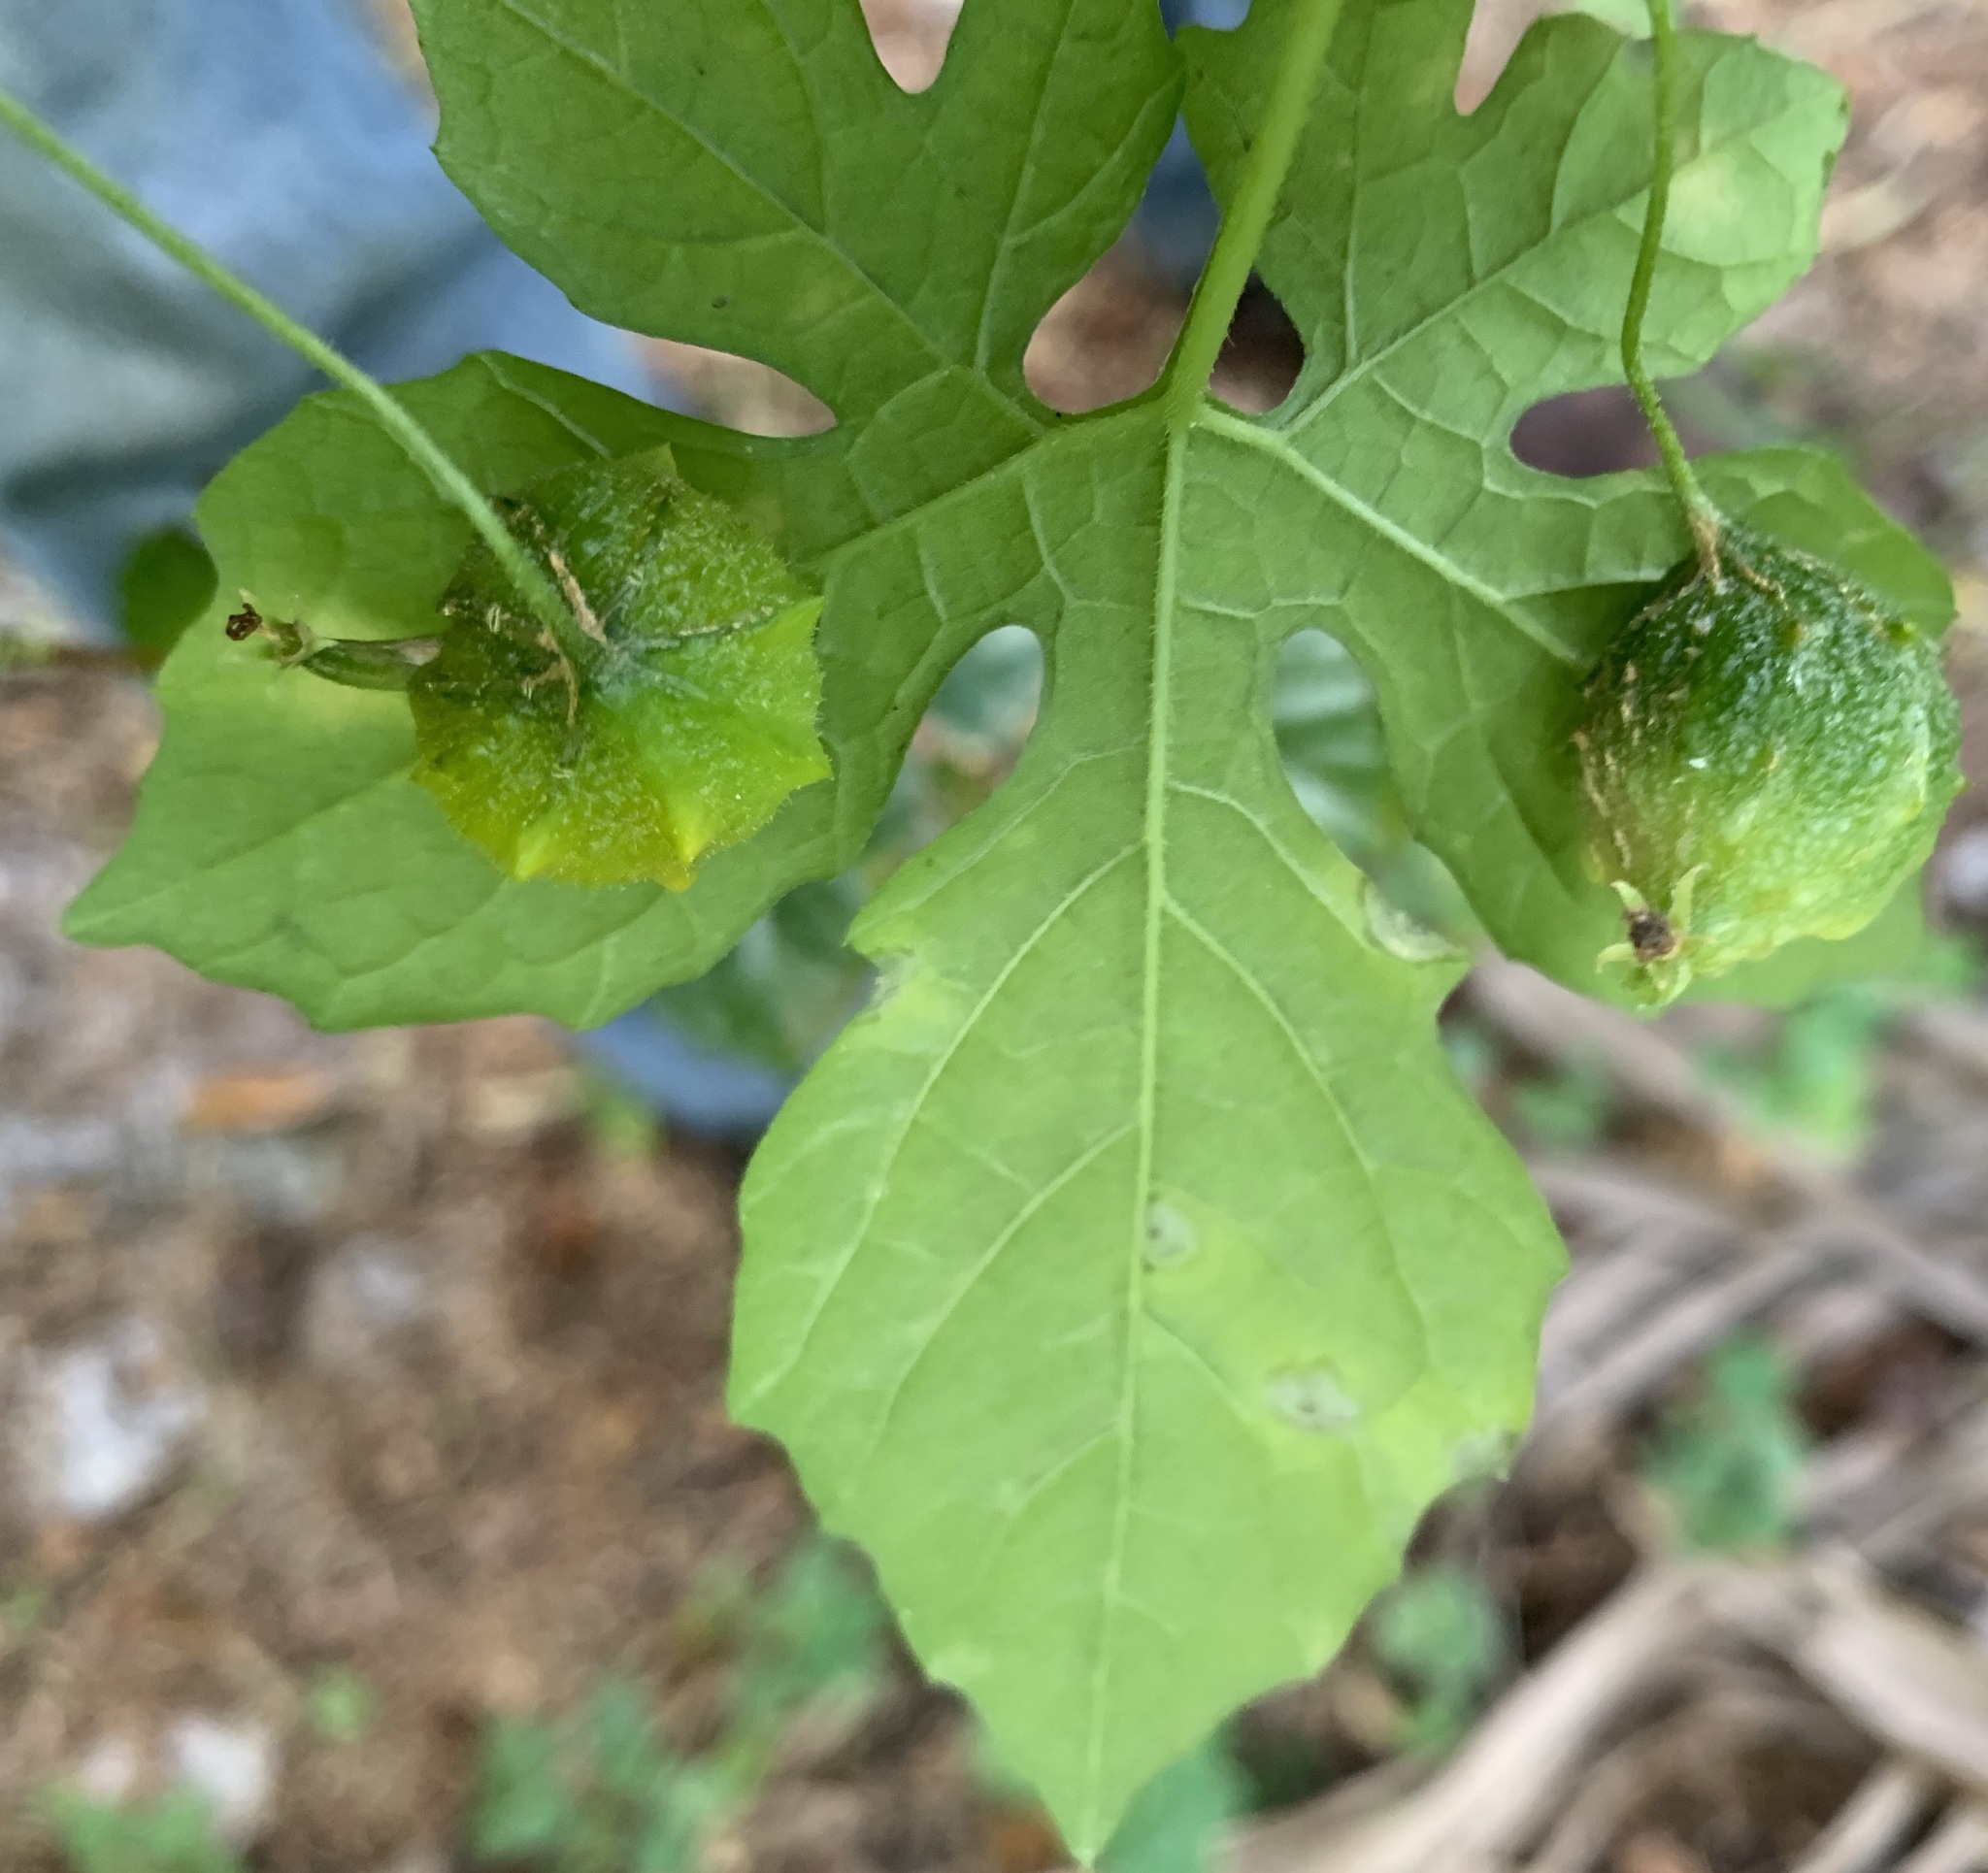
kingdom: Plantae
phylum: Tracheophyta
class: Magnoliopsida
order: Cucurbitales
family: Cucurbitaceae
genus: Momordica
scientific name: Momordica charantia
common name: Balsampear
